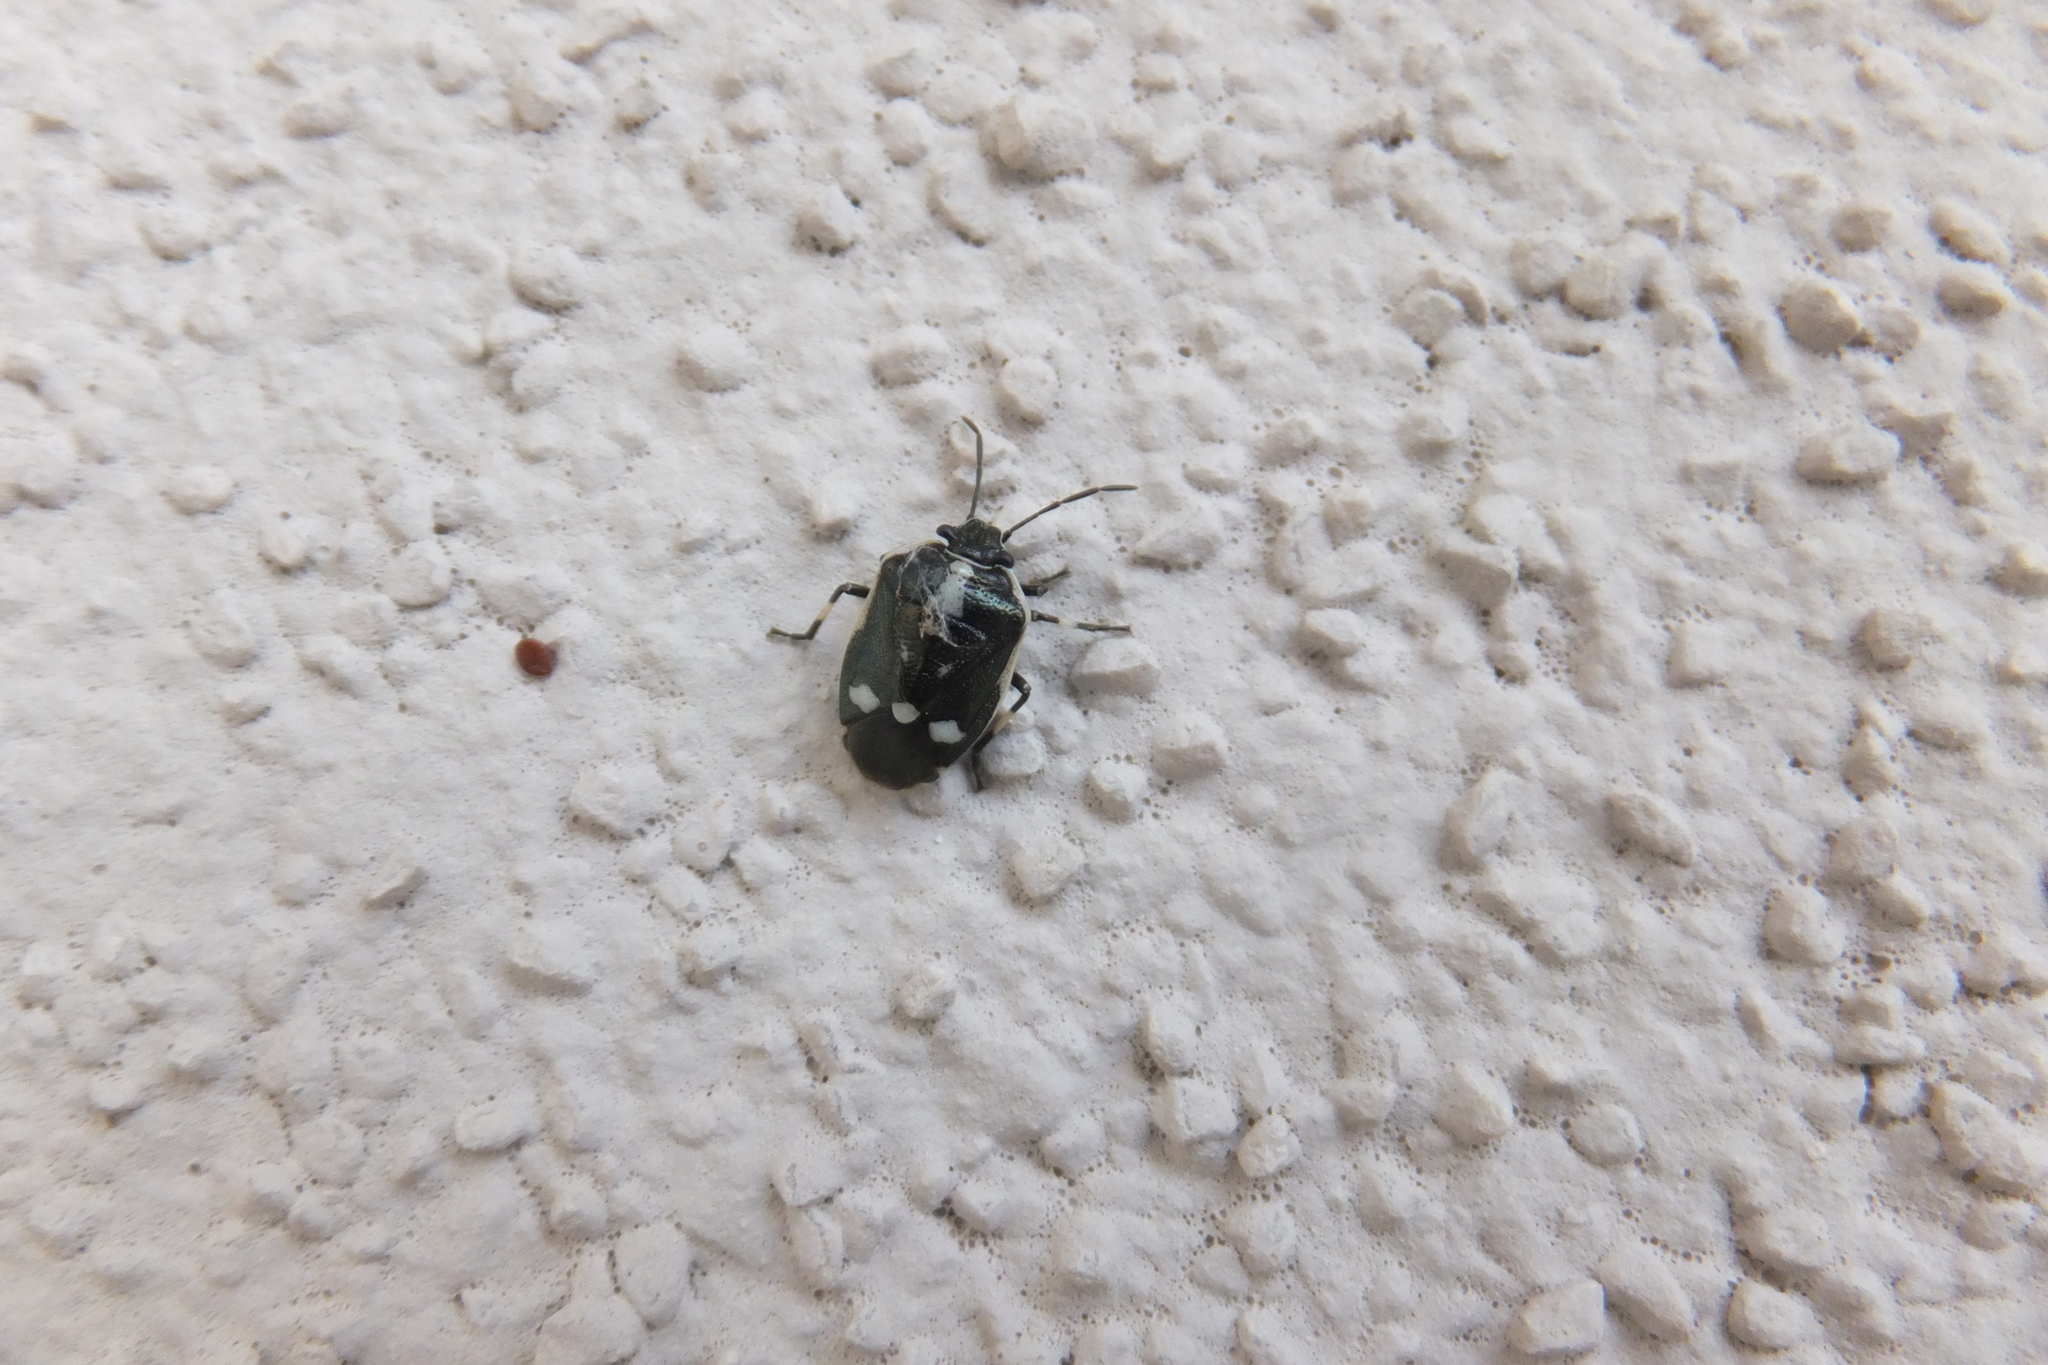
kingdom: Animalia
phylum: Arthropoda
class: Insecta
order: Hemiptera
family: Pentatomidae
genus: Eurydema
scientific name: Eurydema oleracea
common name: Cabbage bug
